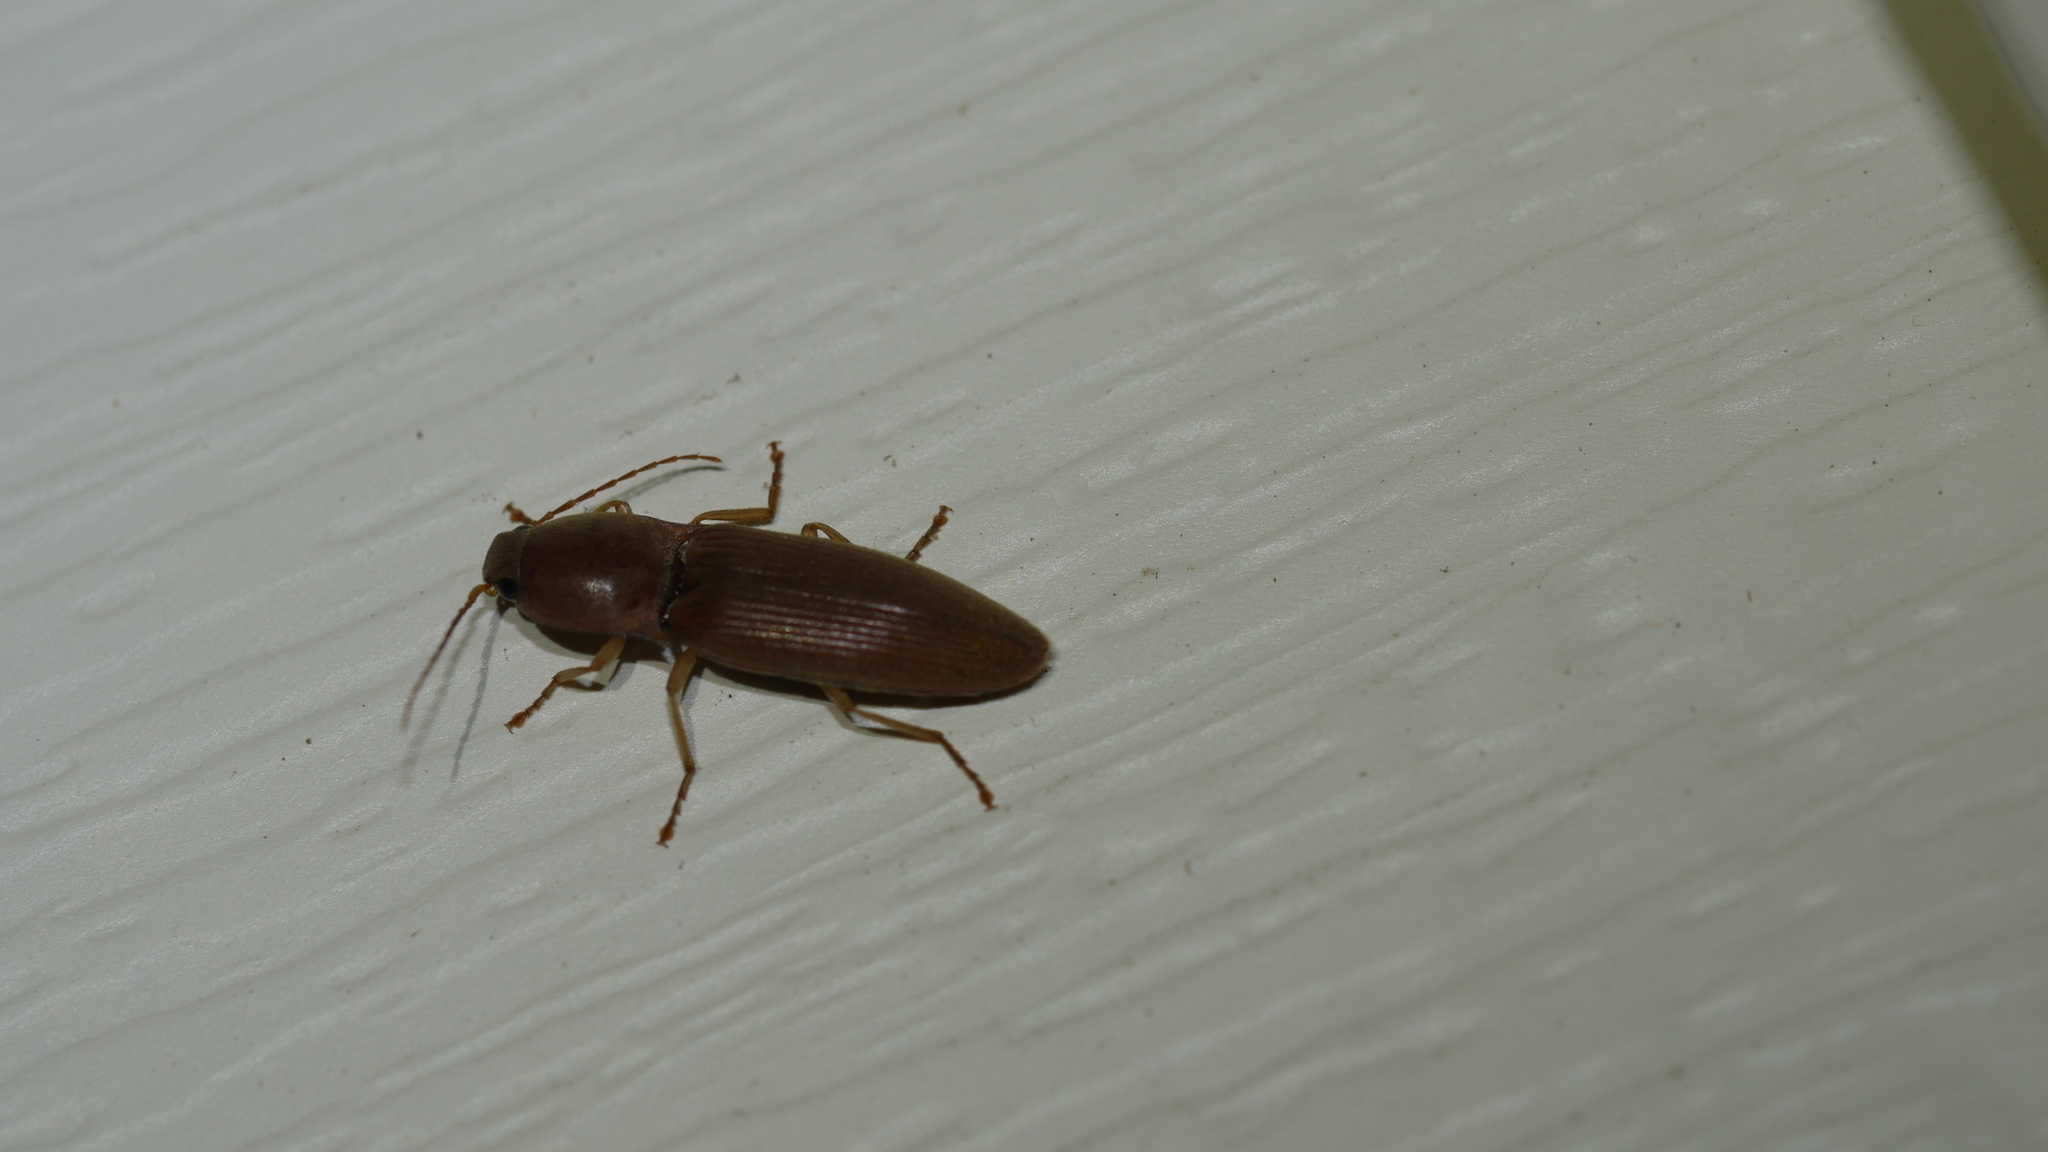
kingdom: Animalia
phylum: Arthropoda
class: Insecta
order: Coleoptera
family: Elateridae
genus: Monocrepidius
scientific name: Monocrepidius lividus
